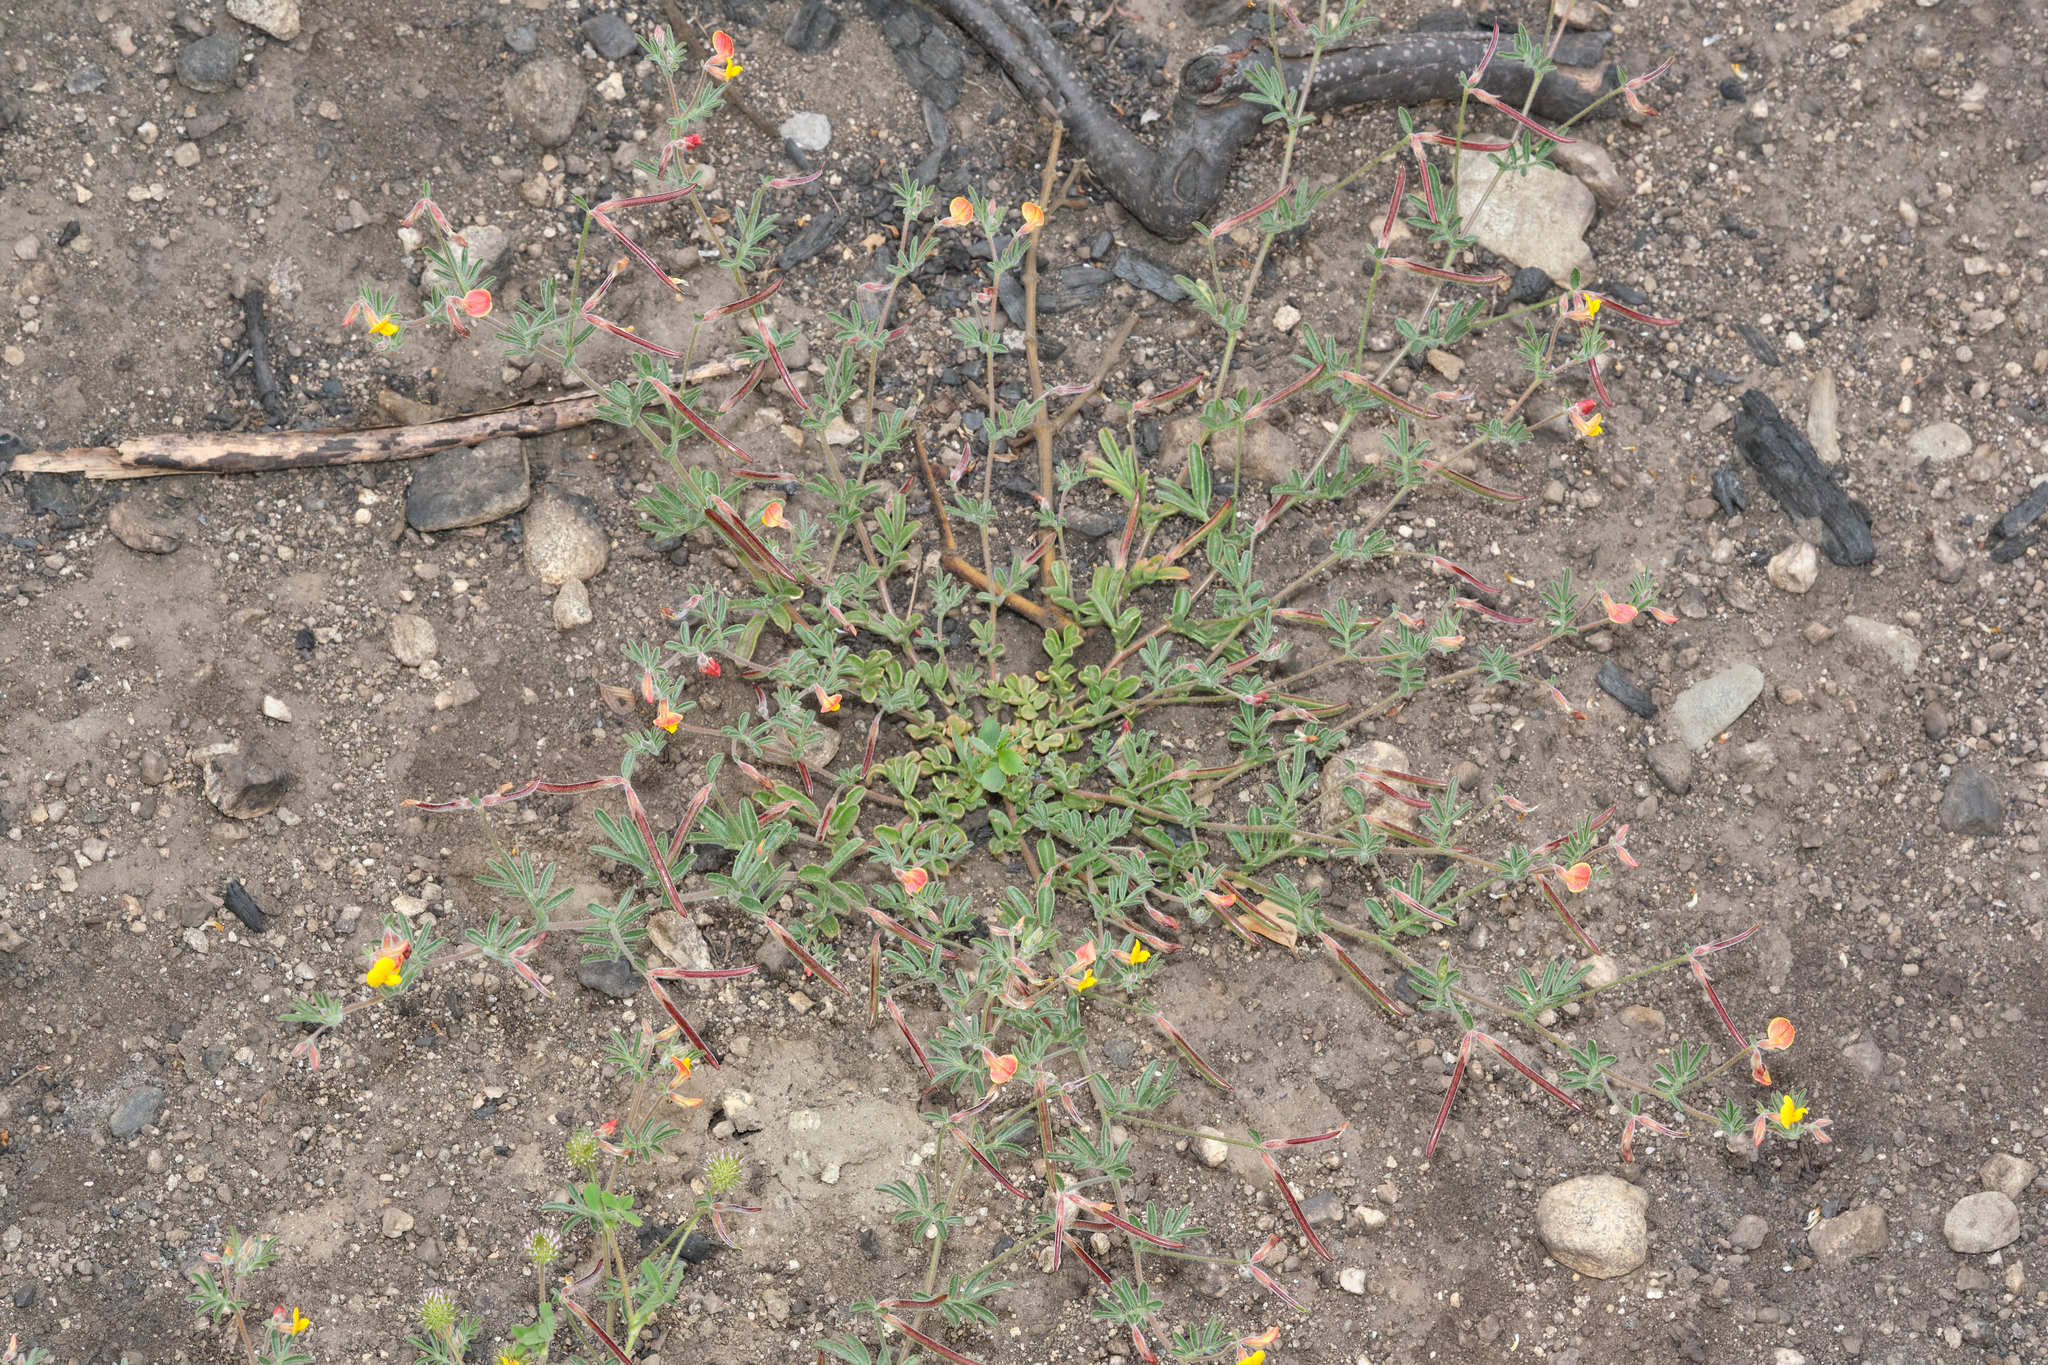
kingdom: Plantae
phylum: Tracheophyta
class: Magnoliopsida
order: Fabales
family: Fabaceae
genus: Acmispon
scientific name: Acmispon strigosus
